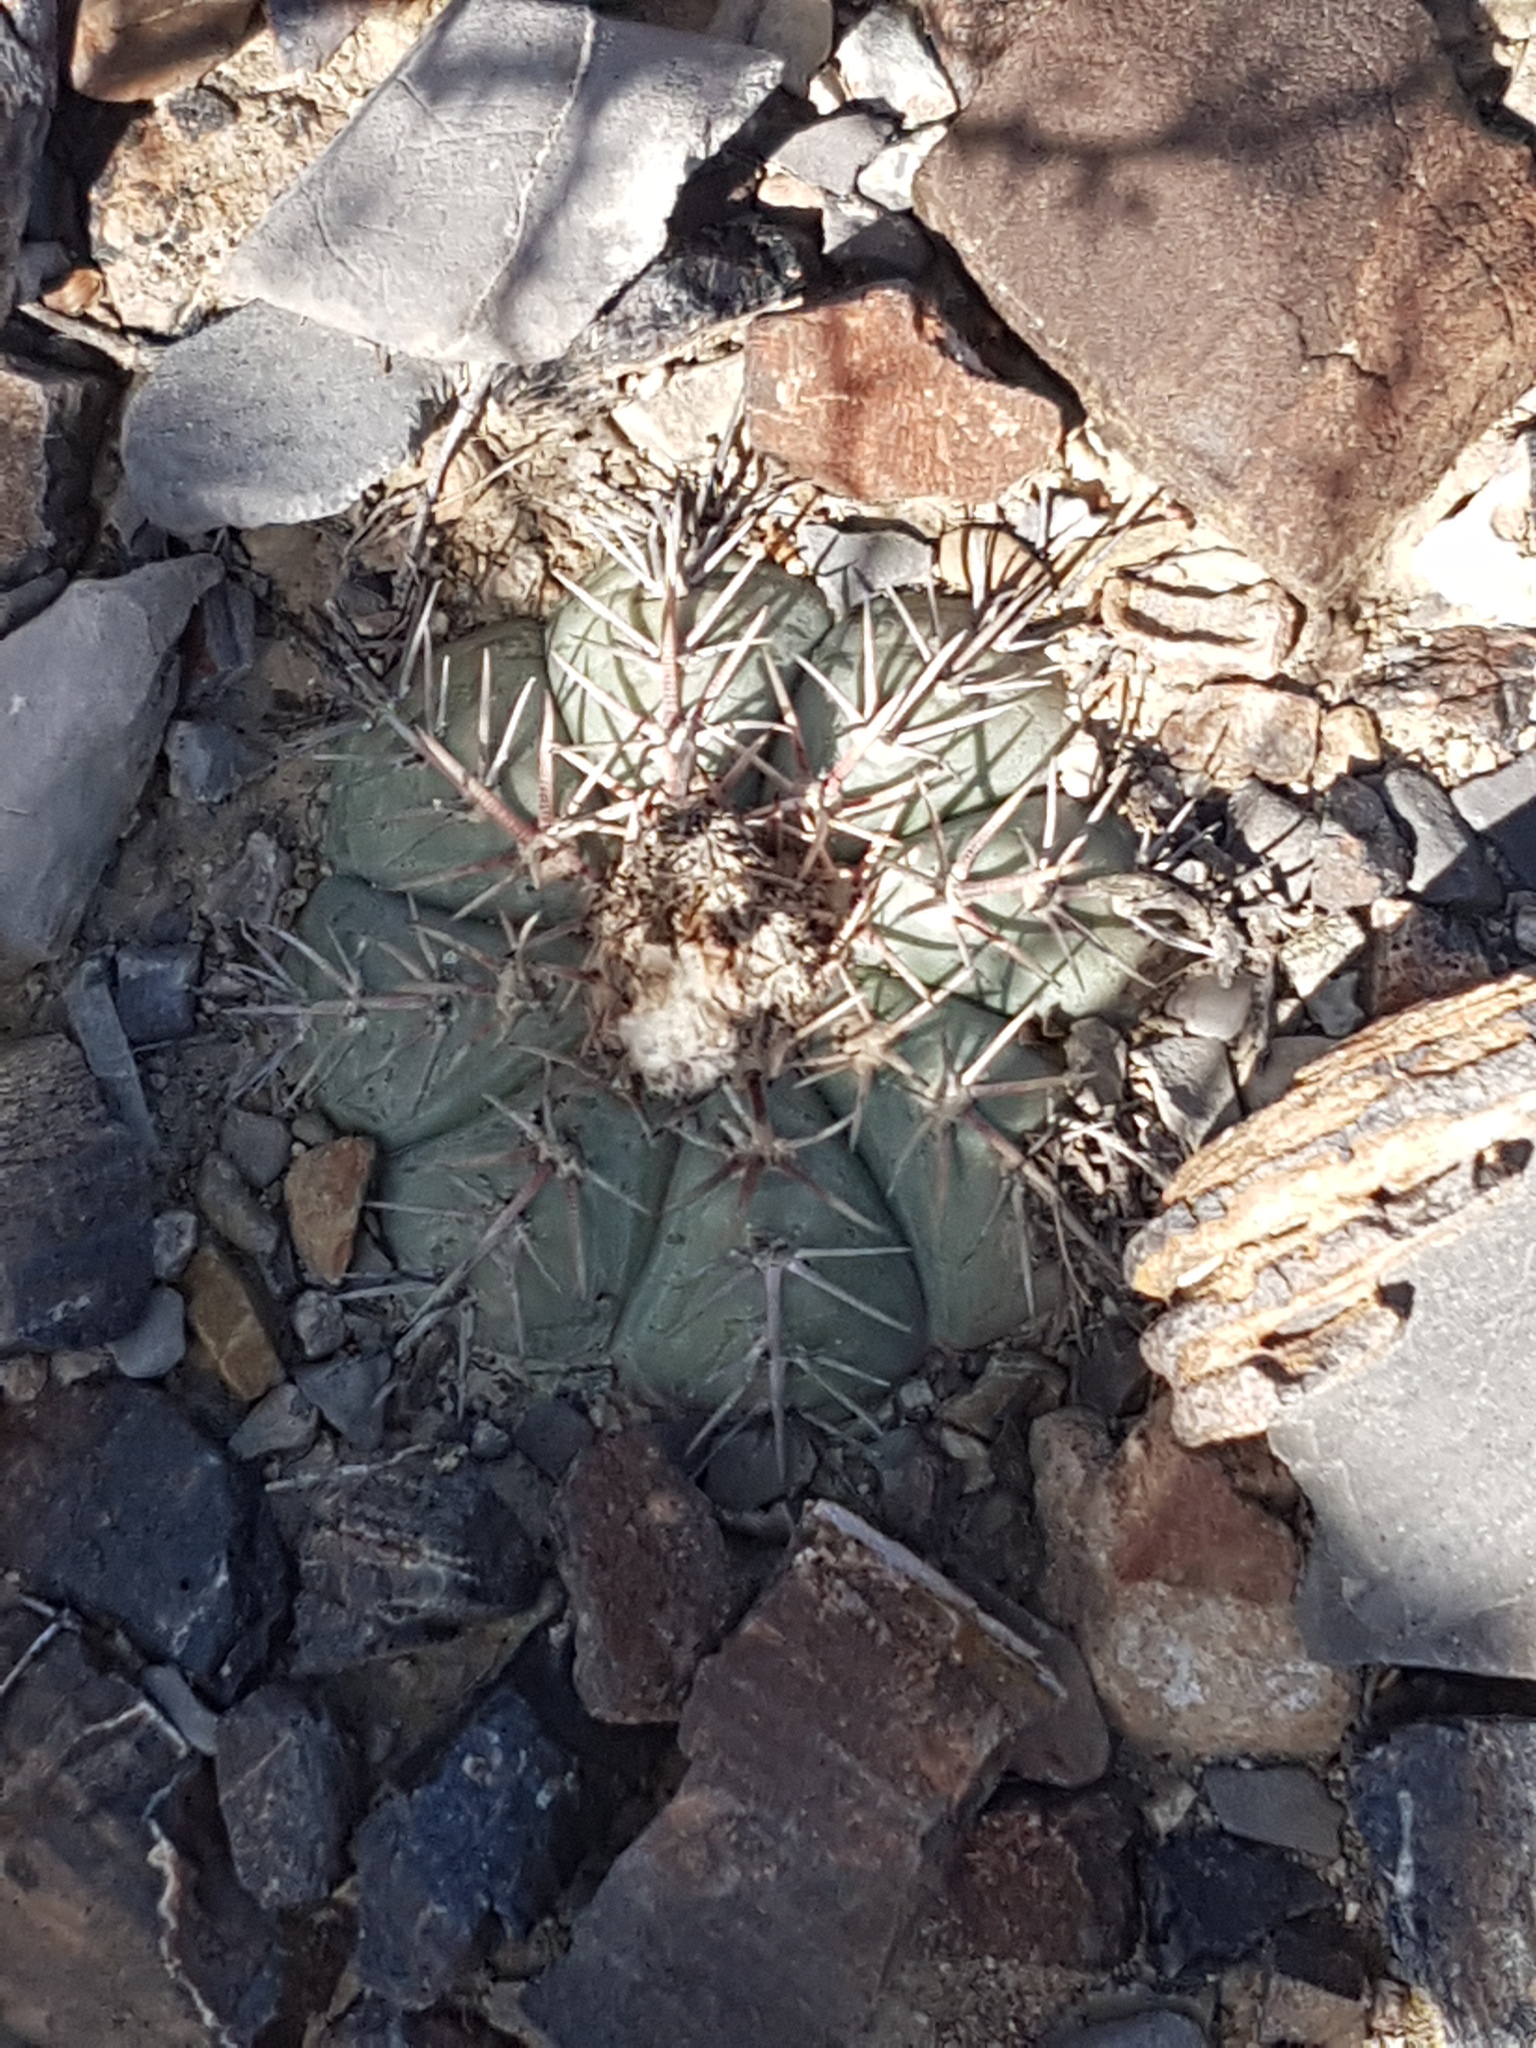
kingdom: Plantae
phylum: Tracheophyta
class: Magnoliopsida
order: Caryophyllales
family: Cactaceae
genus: Echinocactus
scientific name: Echinocactus horizonthalonius
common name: Devilshead
